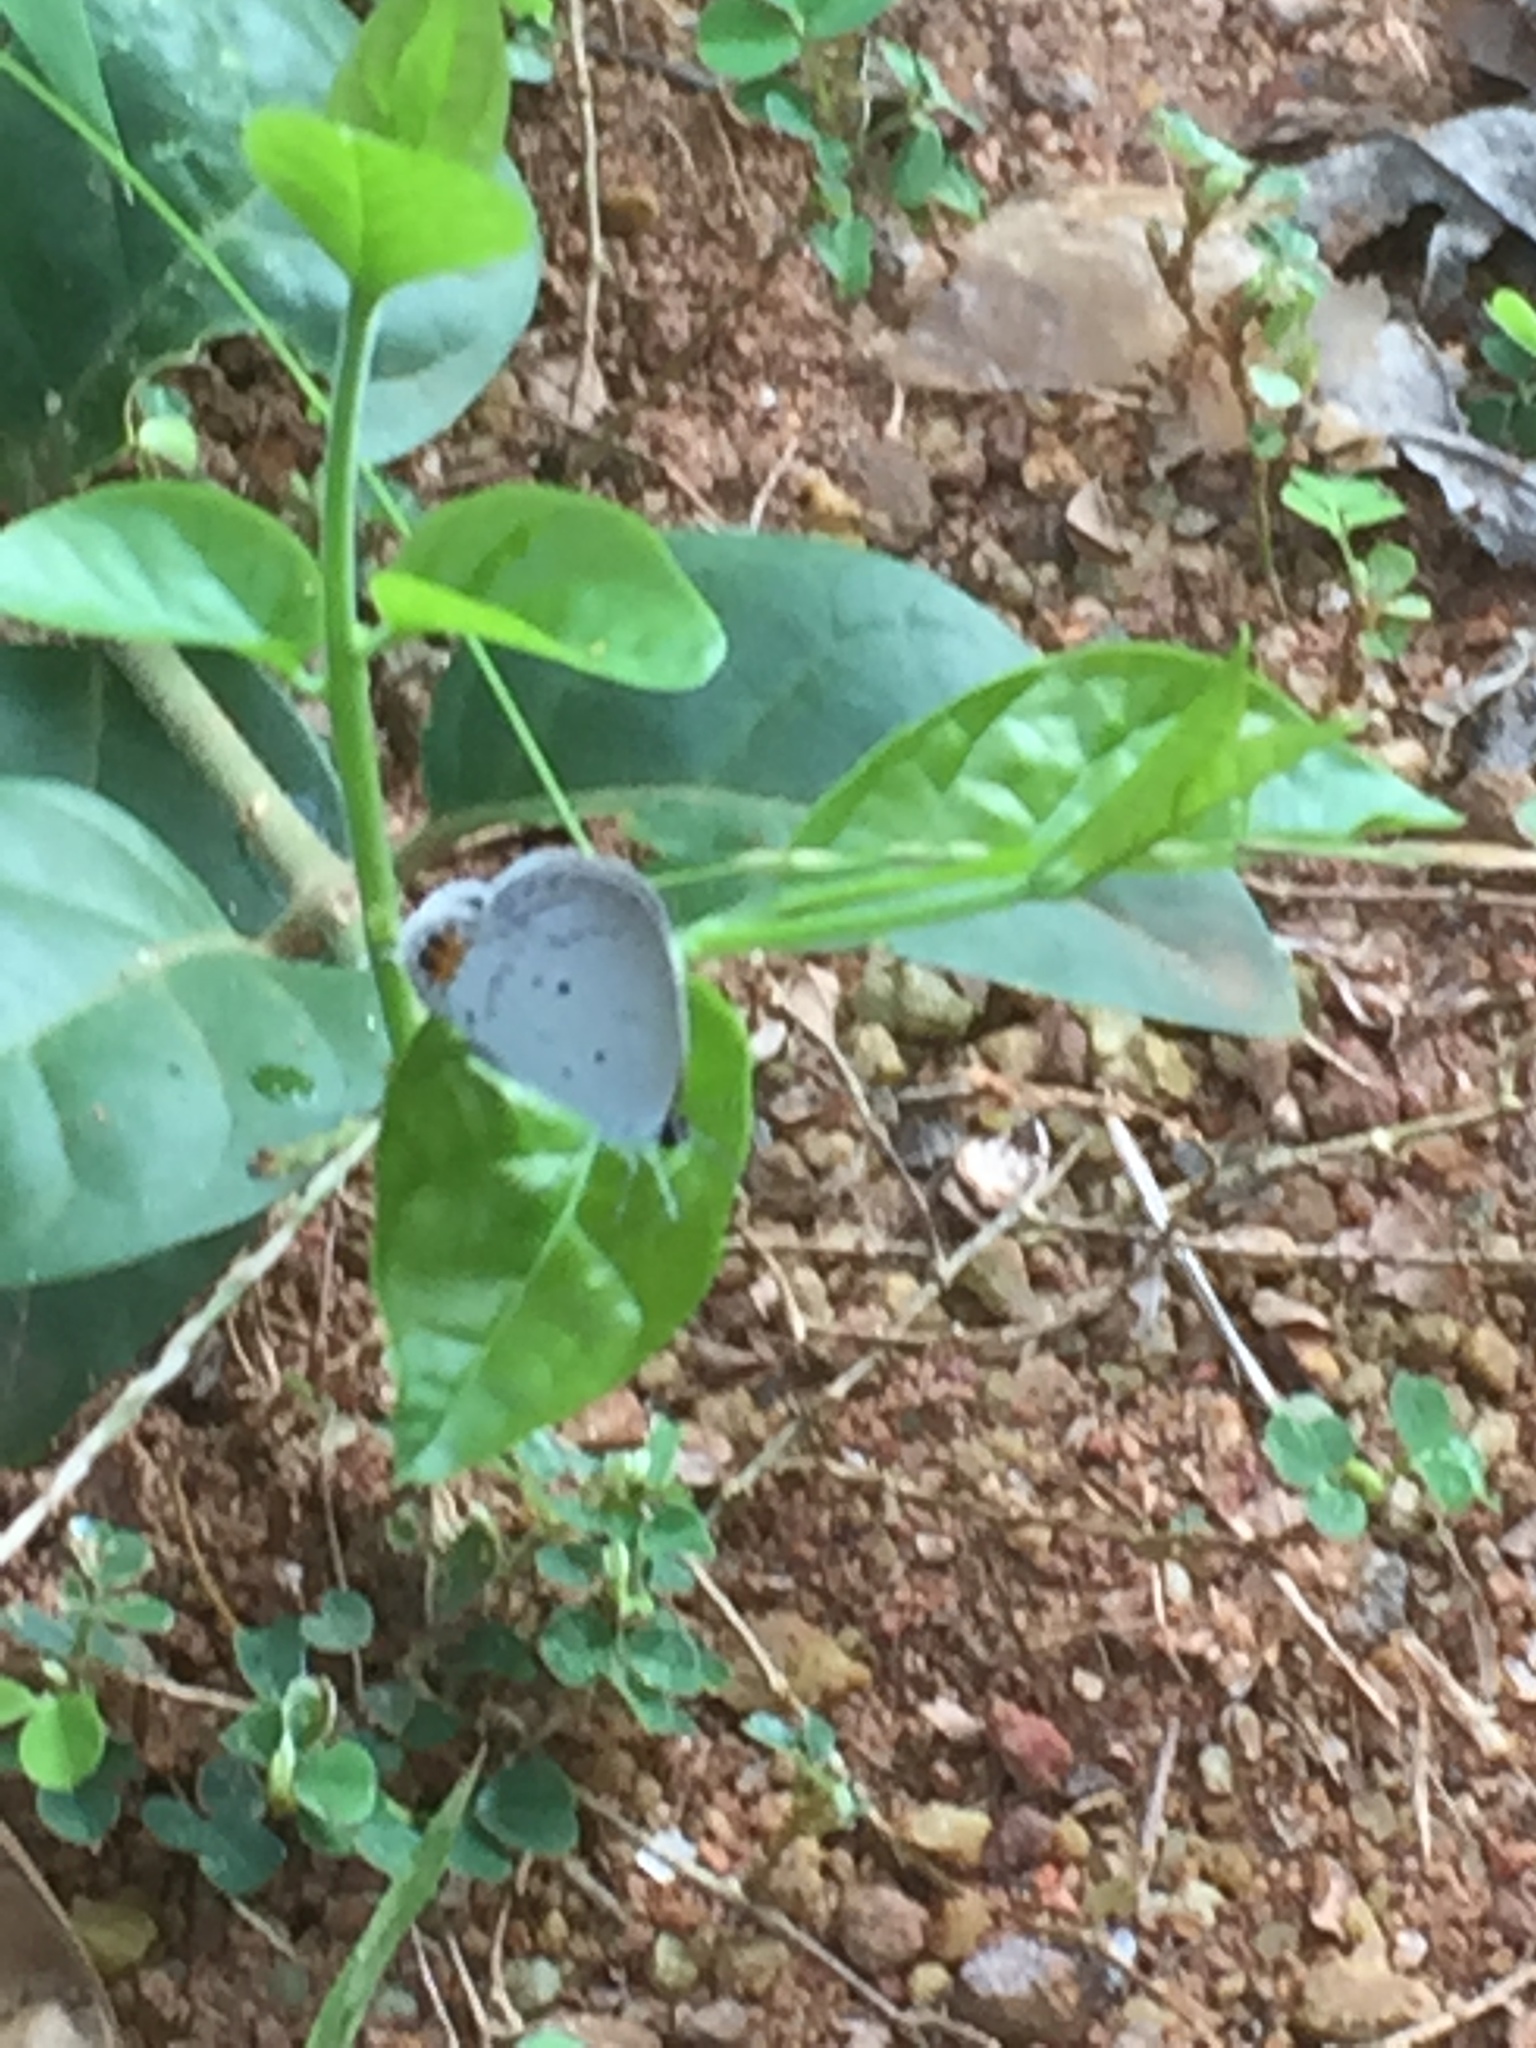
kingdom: Animalia
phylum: Arthropoda
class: Insecta
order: Lepidoptera
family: Lycaenidae
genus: Everes
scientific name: Everes lacturnus
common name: Orange-tipped pea-blue
